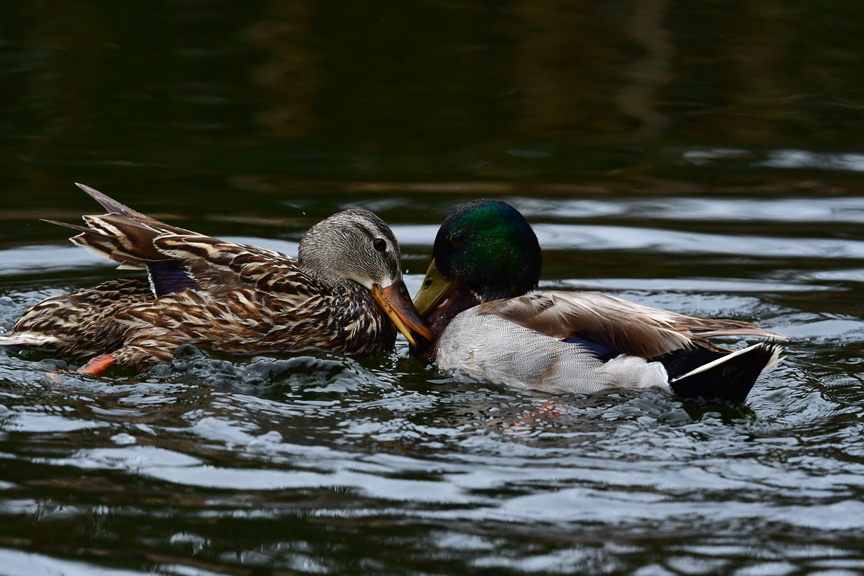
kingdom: Animalia
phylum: Chordata
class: Aves
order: Anseriformes
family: Anatidae
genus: Anas
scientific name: Anas platyrhynchos
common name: Mallard
